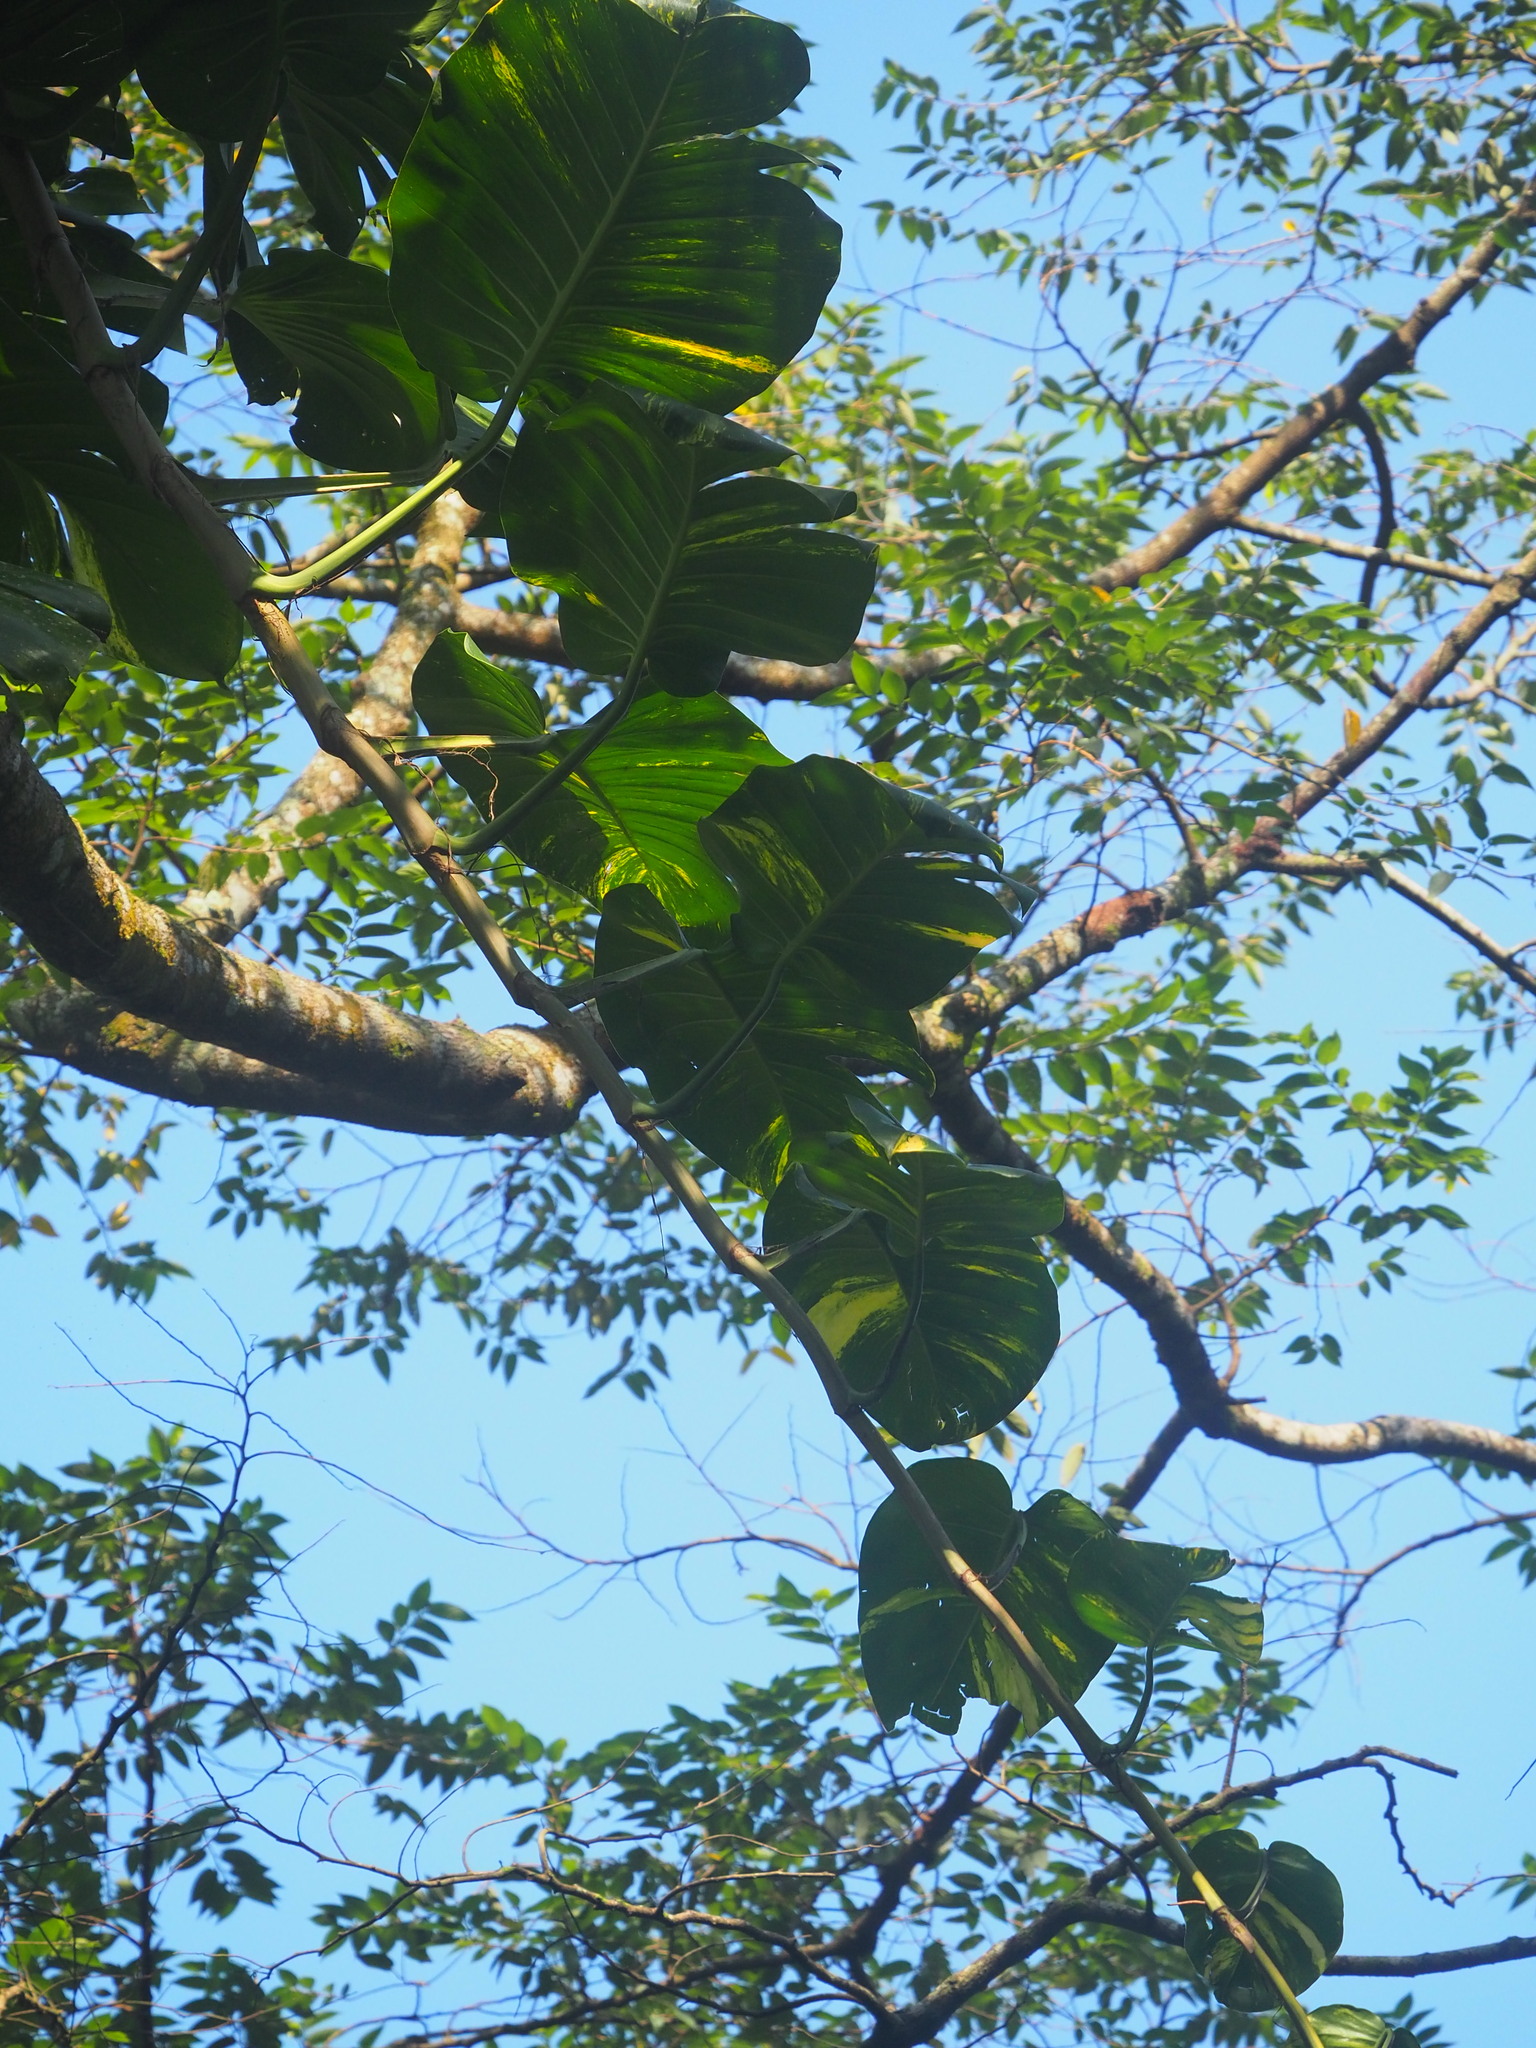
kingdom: Plantae
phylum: Tracheophyta
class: Liliopsida
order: Alismatales
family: Araceae
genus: Epipremnum
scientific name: Epipremnum aureum
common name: Golden hunter's-robe
